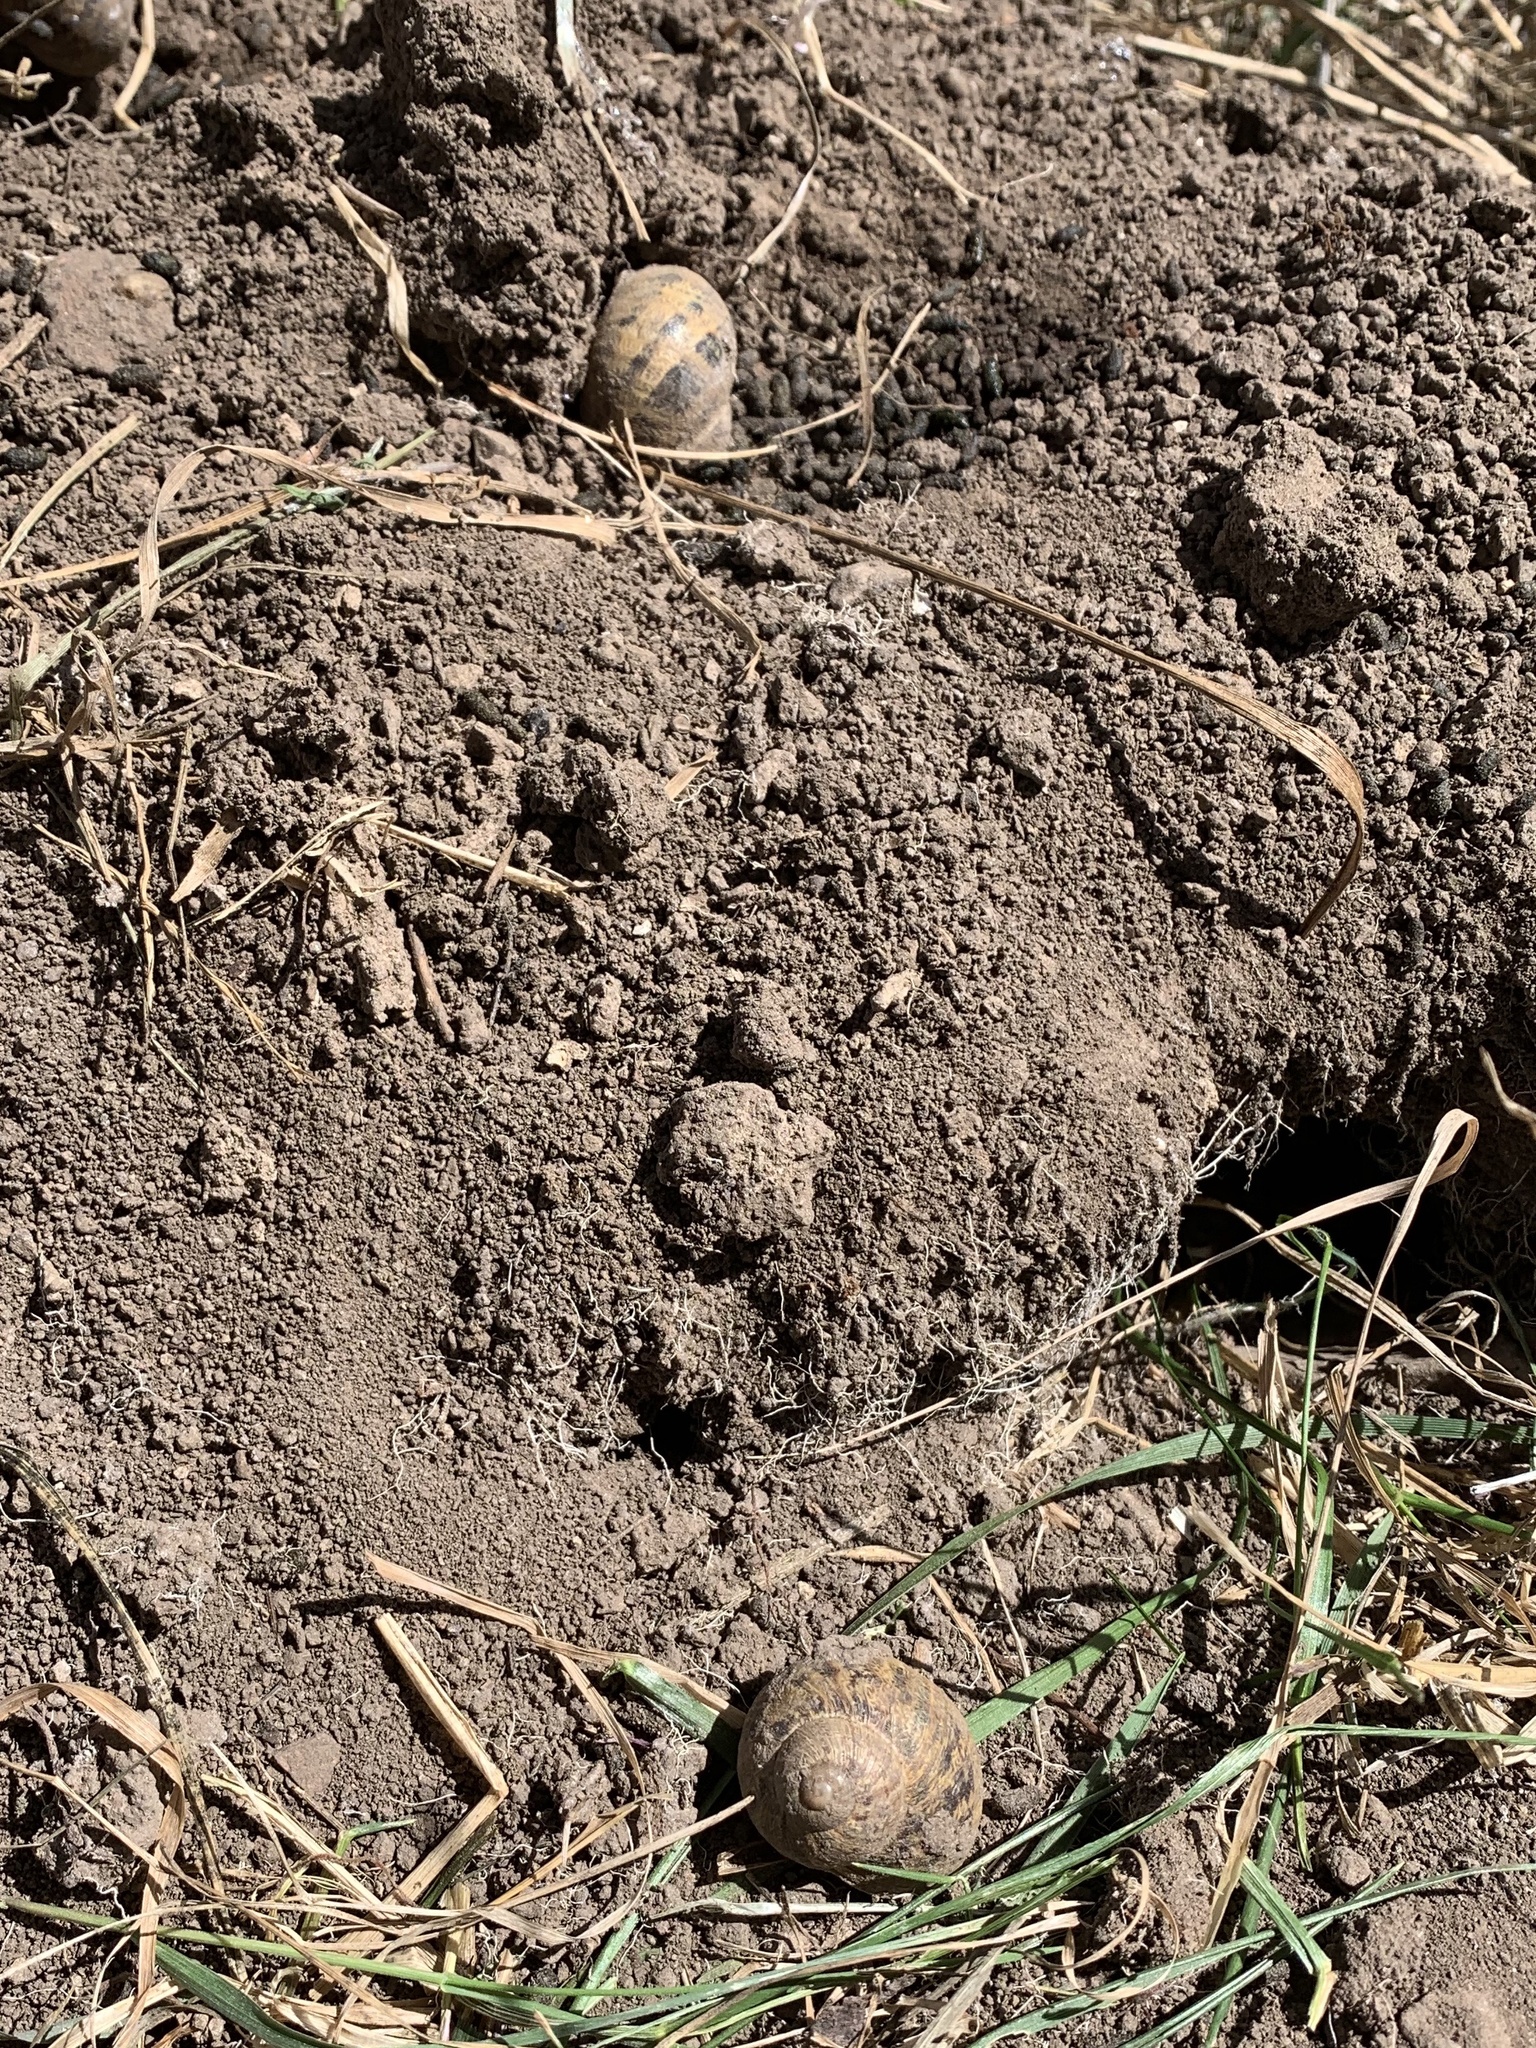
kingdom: Animalia
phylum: Mollusca
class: Gastropoda
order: Stylommatophora
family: Helicidae
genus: Cornu
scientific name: Cornu aspersum
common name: Brown garden snail
